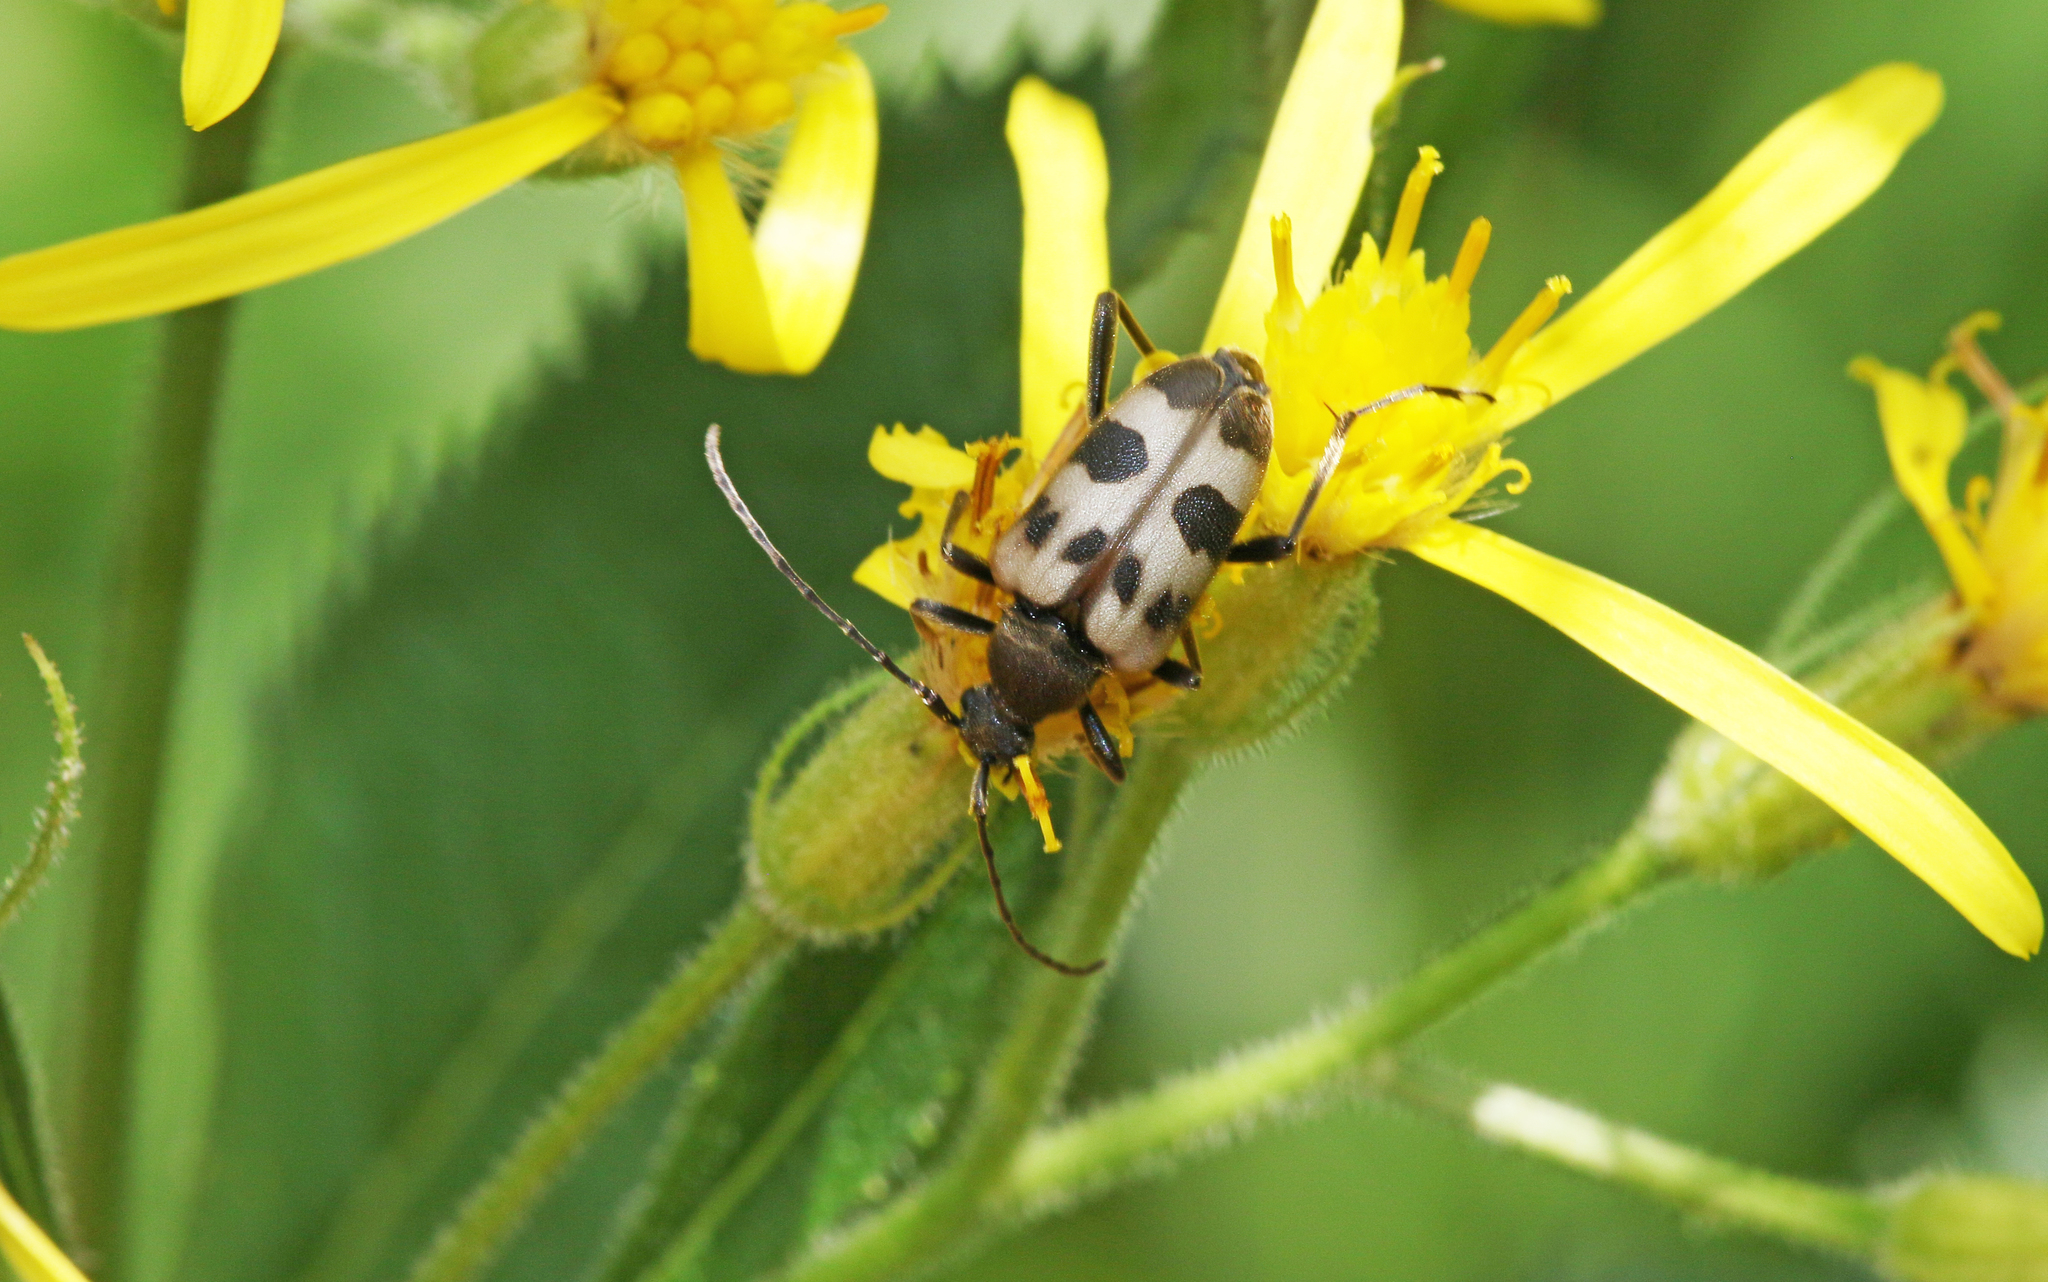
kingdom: Animalia
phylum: Arthropoda
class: Insecta
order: Coleoptera
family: Cerambycidae
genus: Pachytodes
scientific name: Pachytodes cerambyciformis
